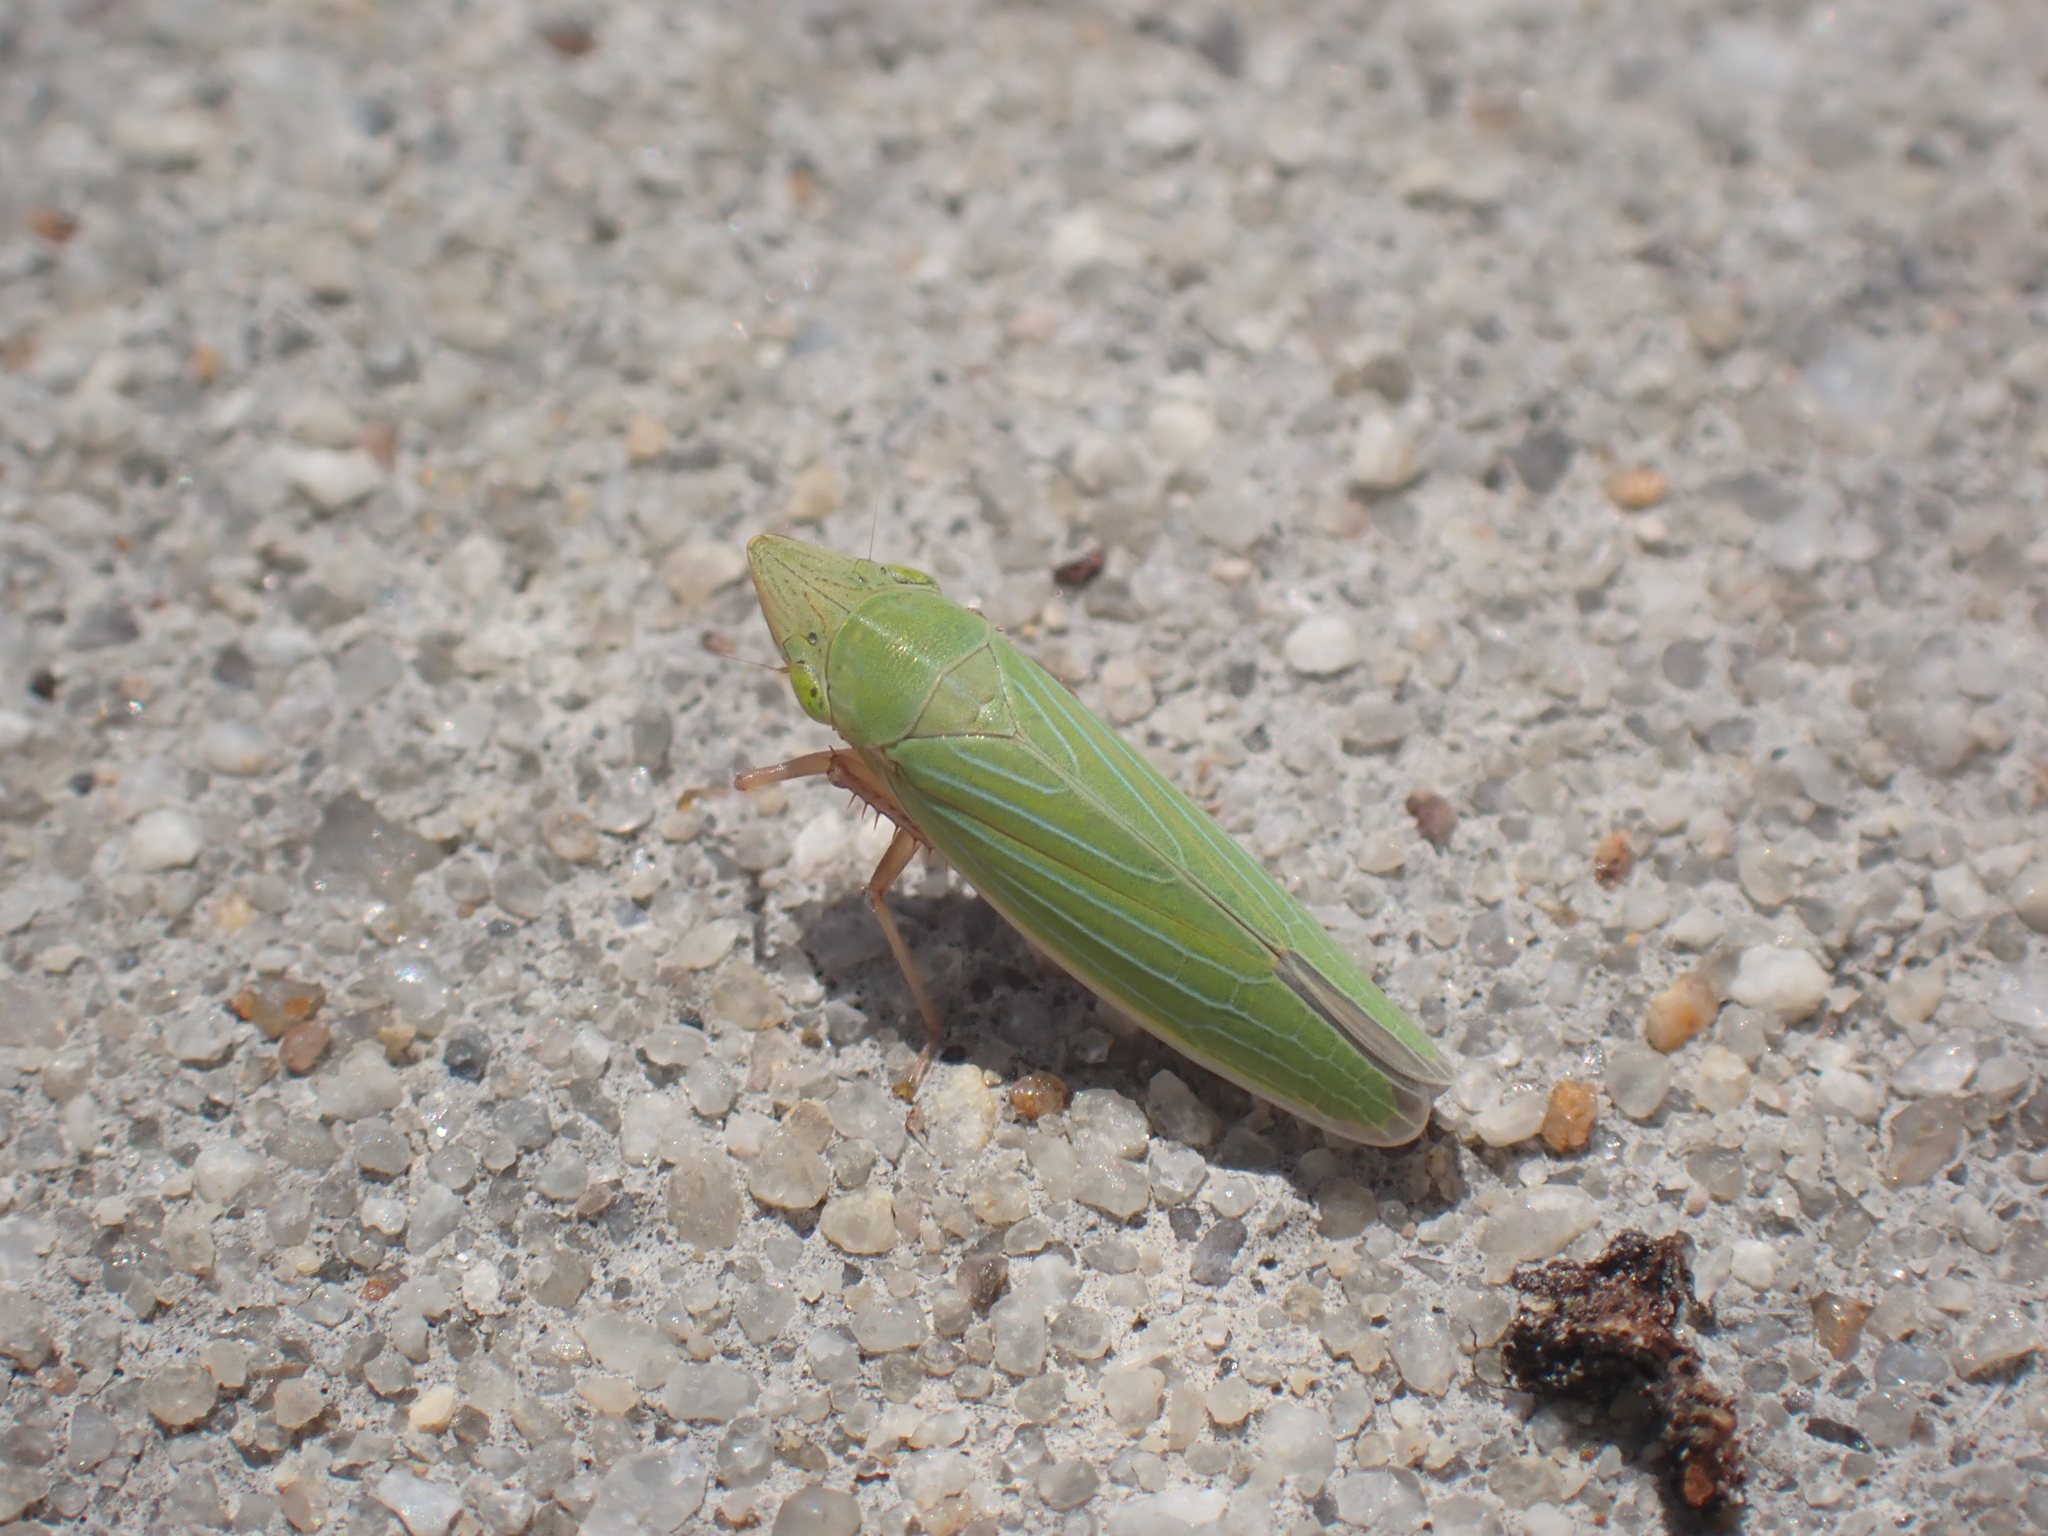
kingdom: Animalia
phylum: Arthropoda
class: Insecta
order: Hemiptera
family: Cicadellidae
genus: Draeculacephala
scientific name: Draeculacephala mollipes
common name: Watercress sharpshooter
